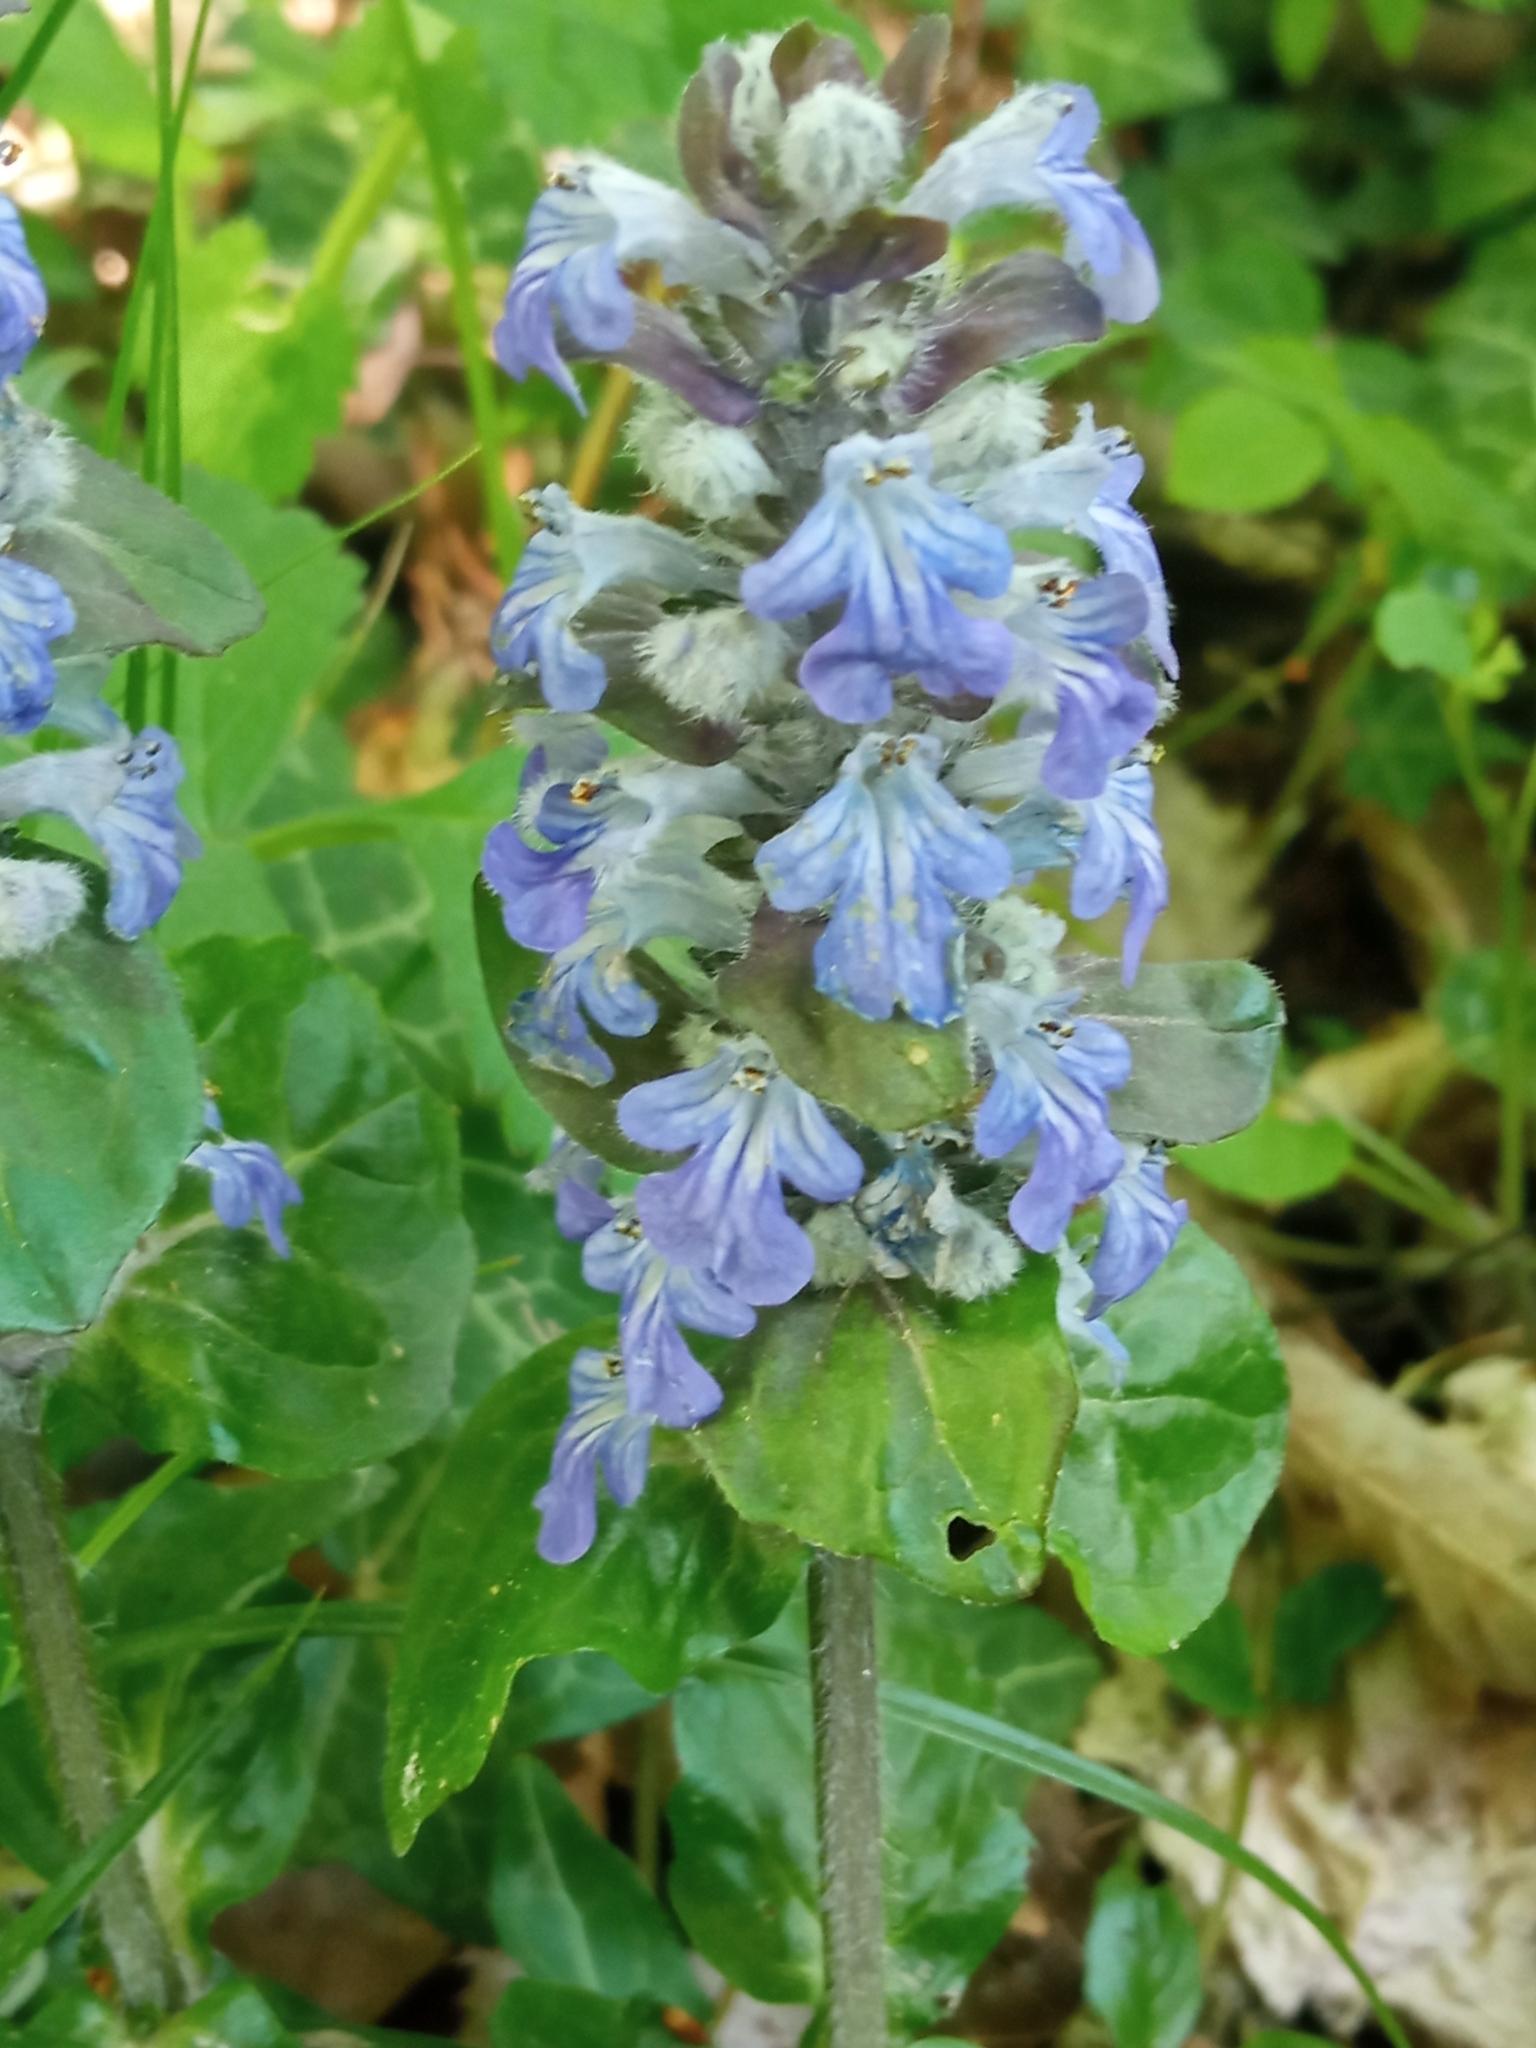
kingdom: Plantae
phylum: Tracheophyta
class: Magnoliopsida
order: Lamiales
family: Lamiaceae
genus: Ajuga
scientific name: Ajuga reptans
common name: Bugle
